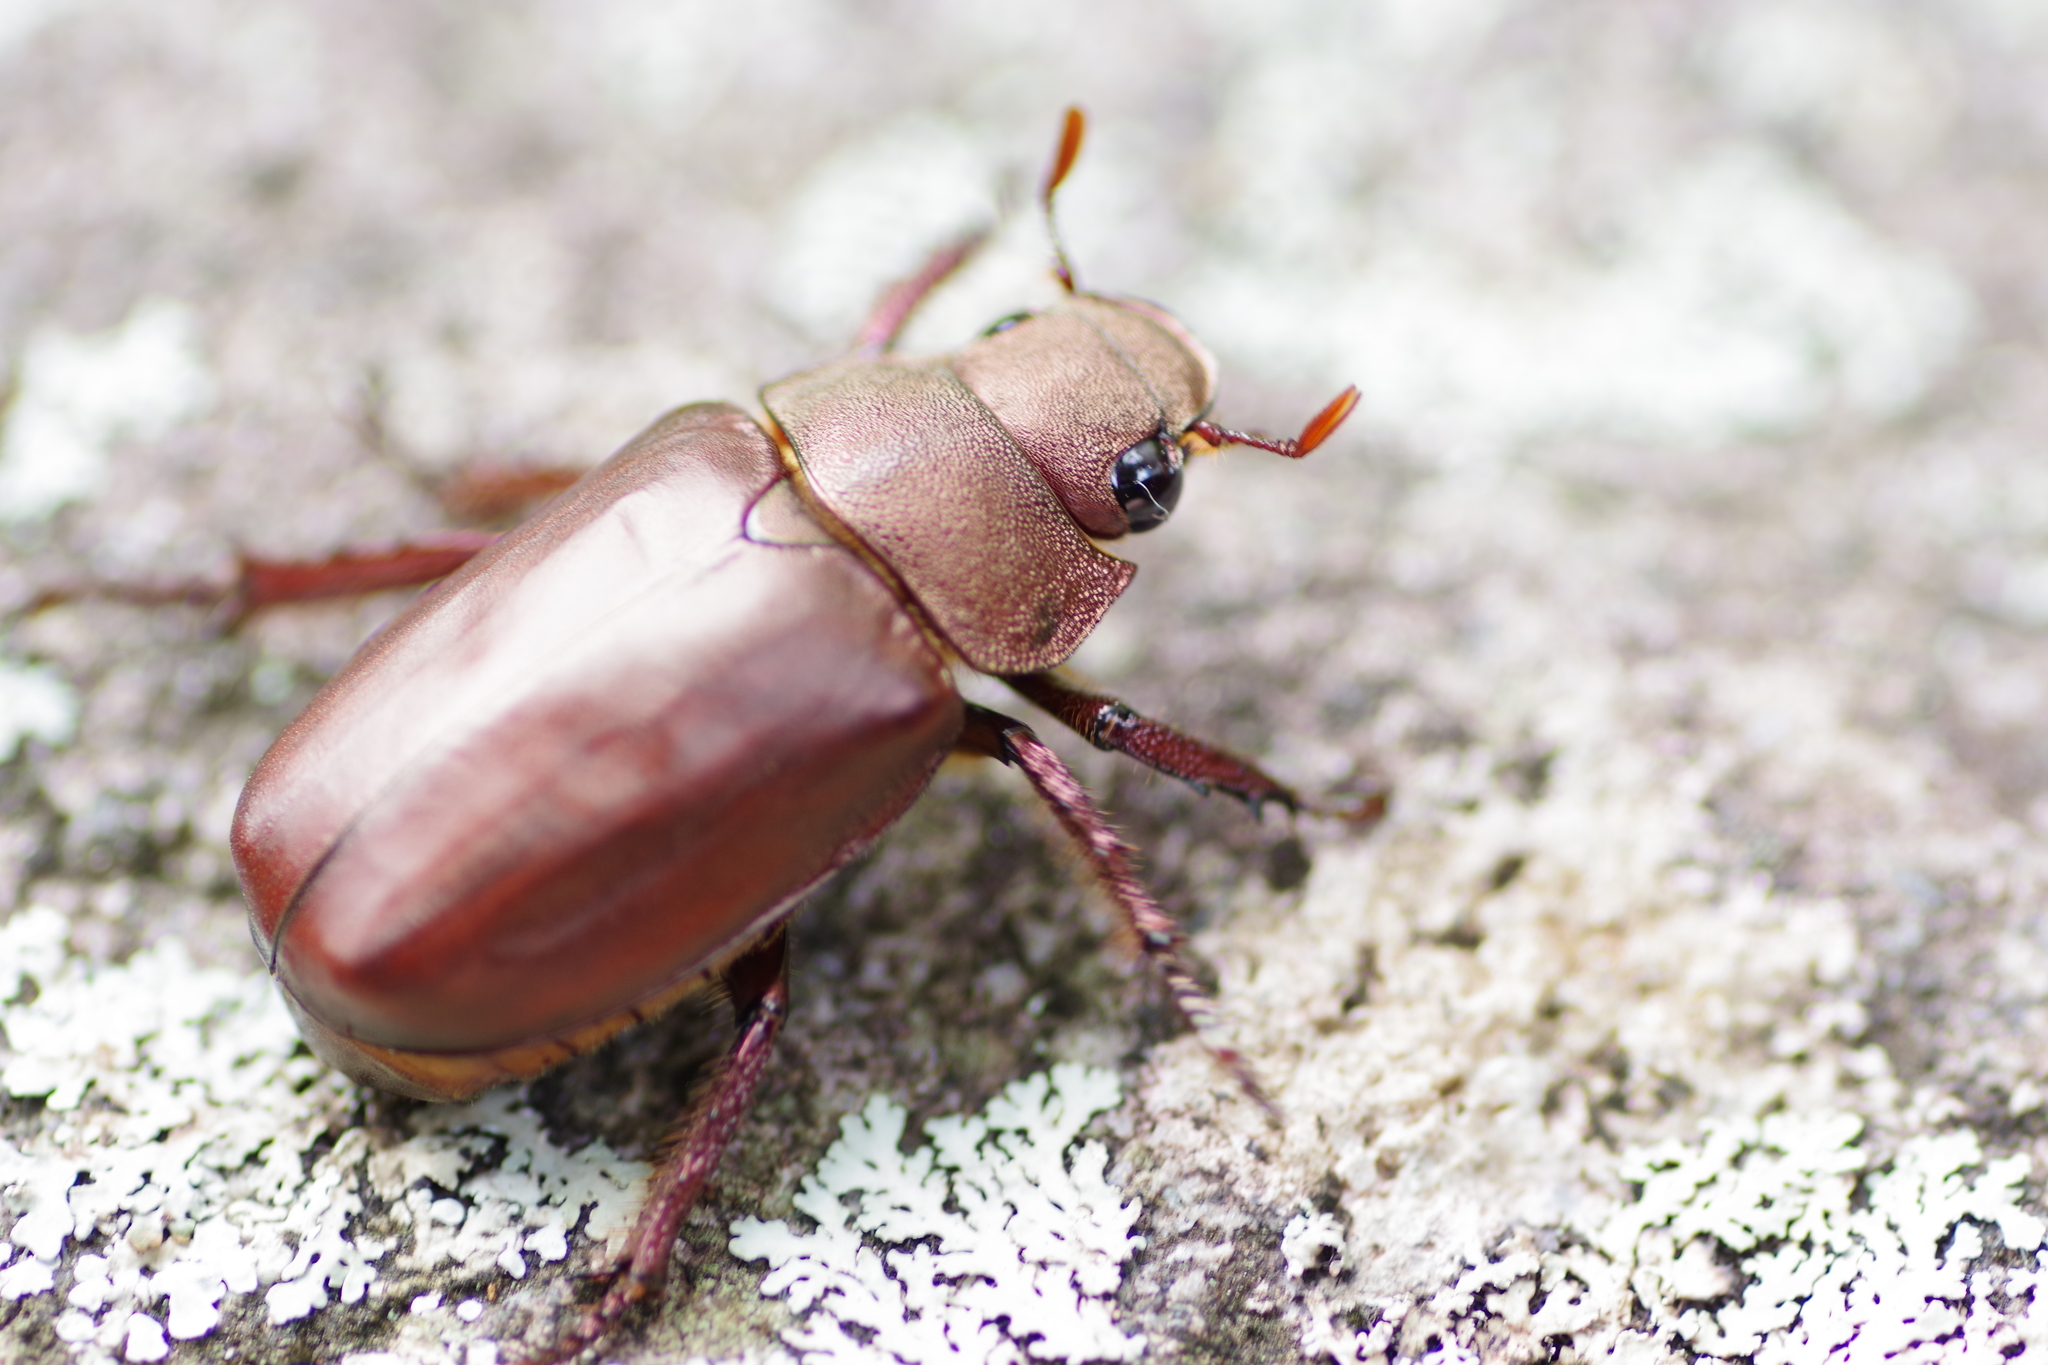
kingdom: Animalia
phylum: Arthropoda
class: Insecta
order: Coleoptera
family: Scarabaeidae
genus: Spodochlamys
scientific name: Spodochlamys cupreola
